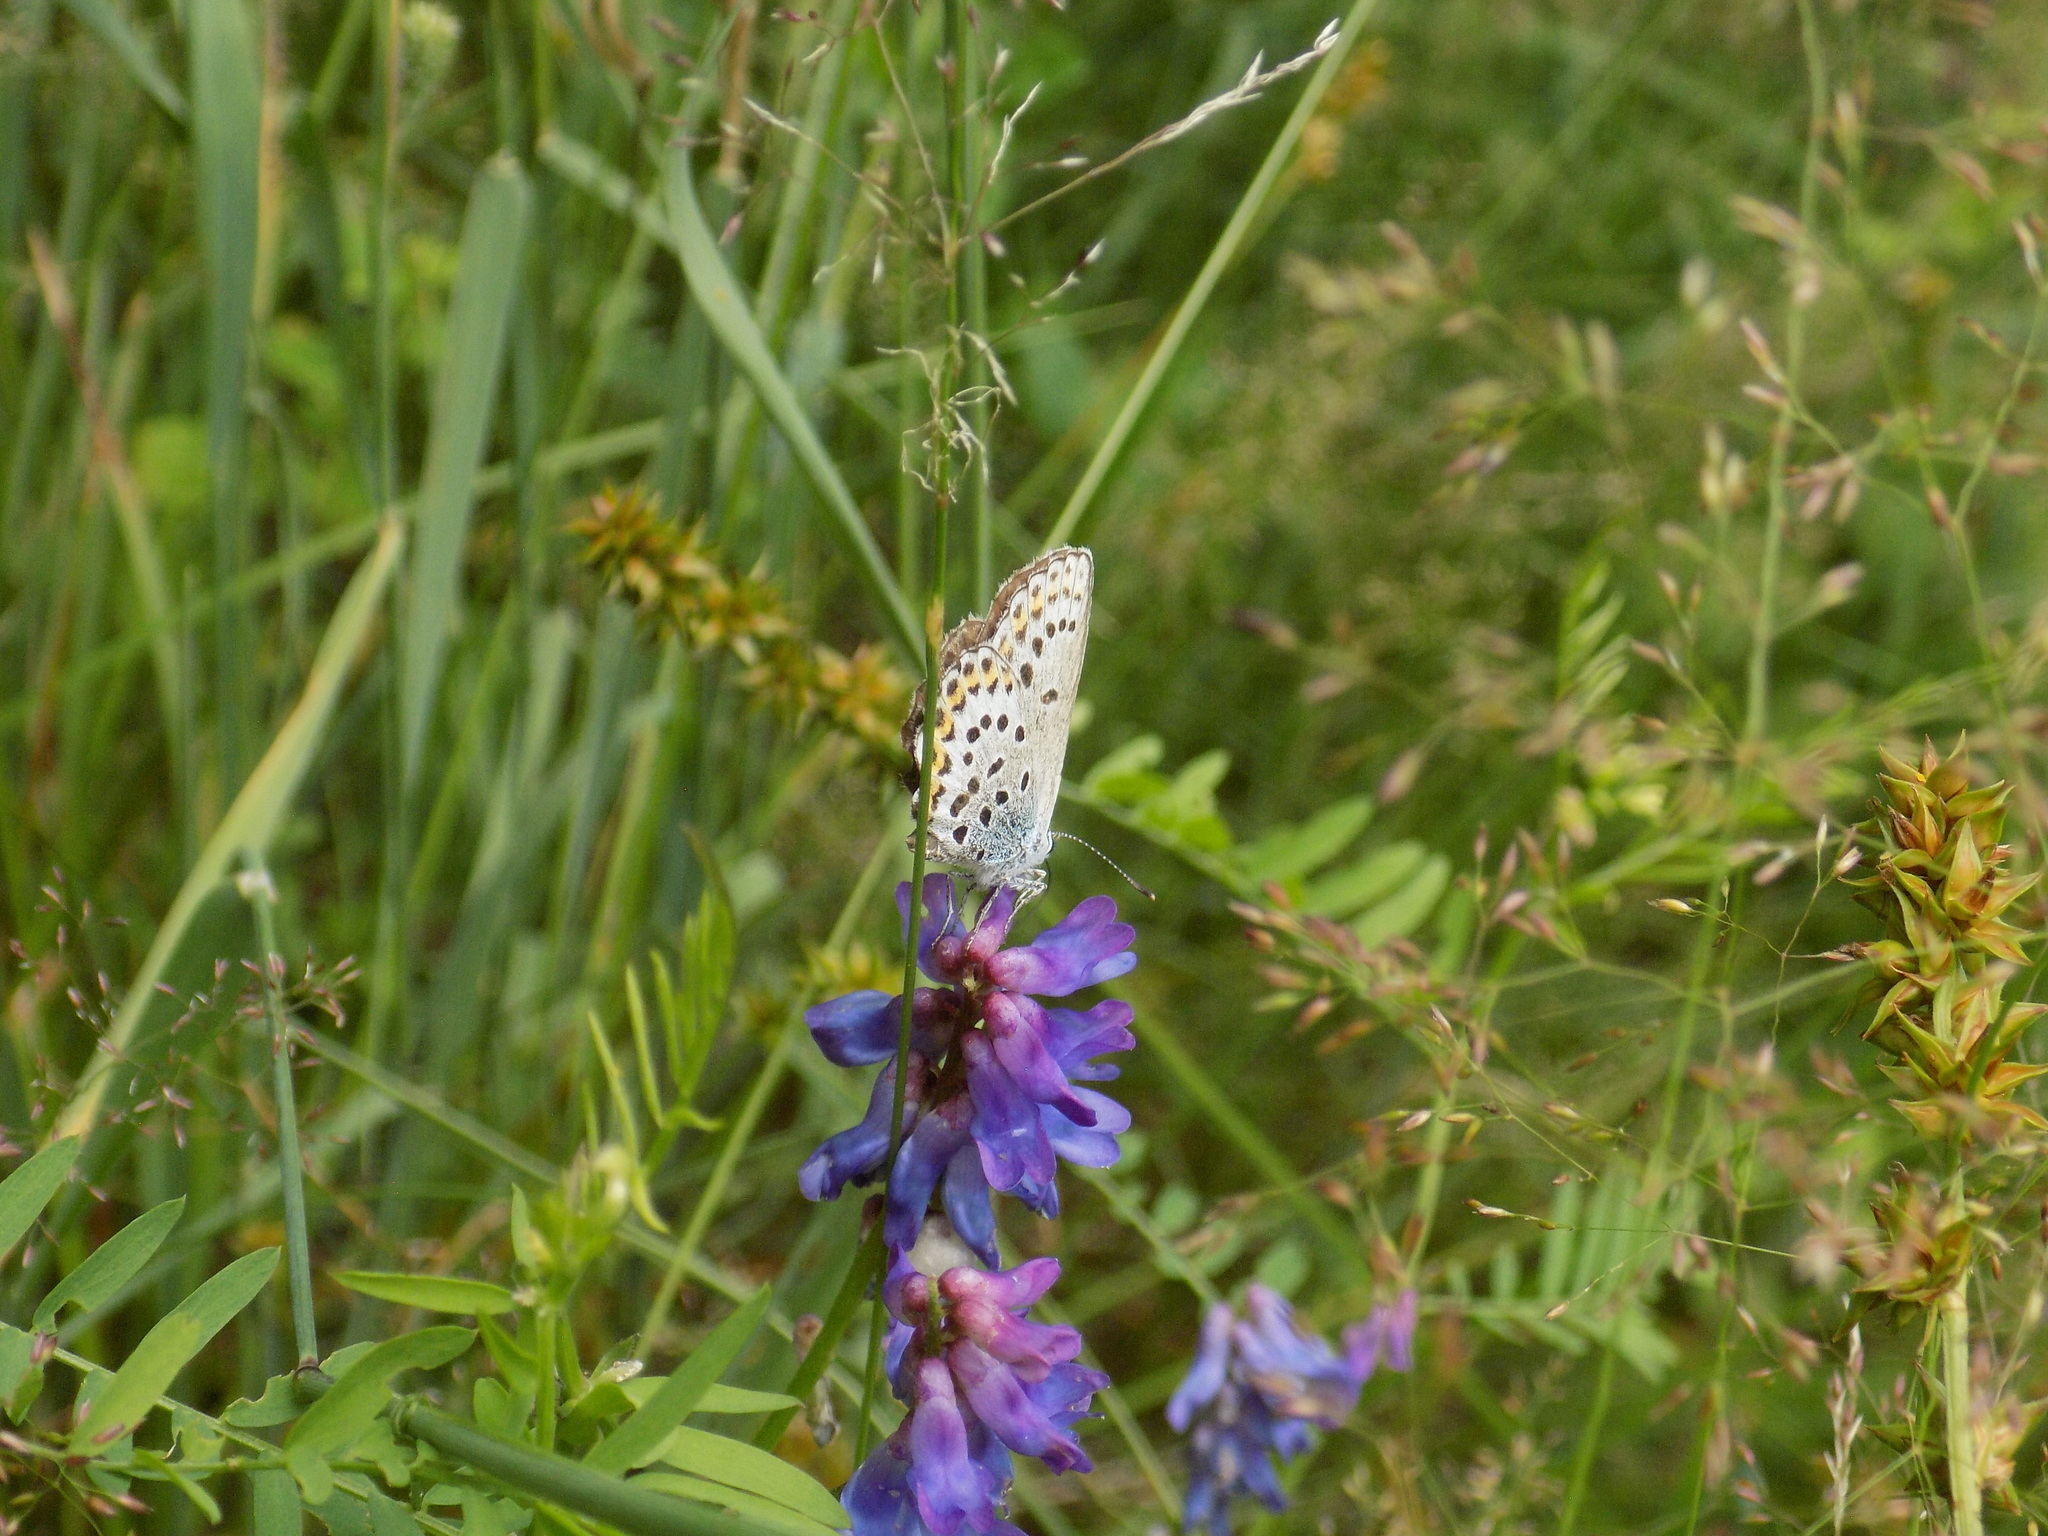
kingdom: Animalia
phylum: Arthropoda
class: Insecta
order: Lepidoptera
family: Lycaenidae
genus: Plebejus
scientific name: Plebejus argus
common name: Silver-studded blue
